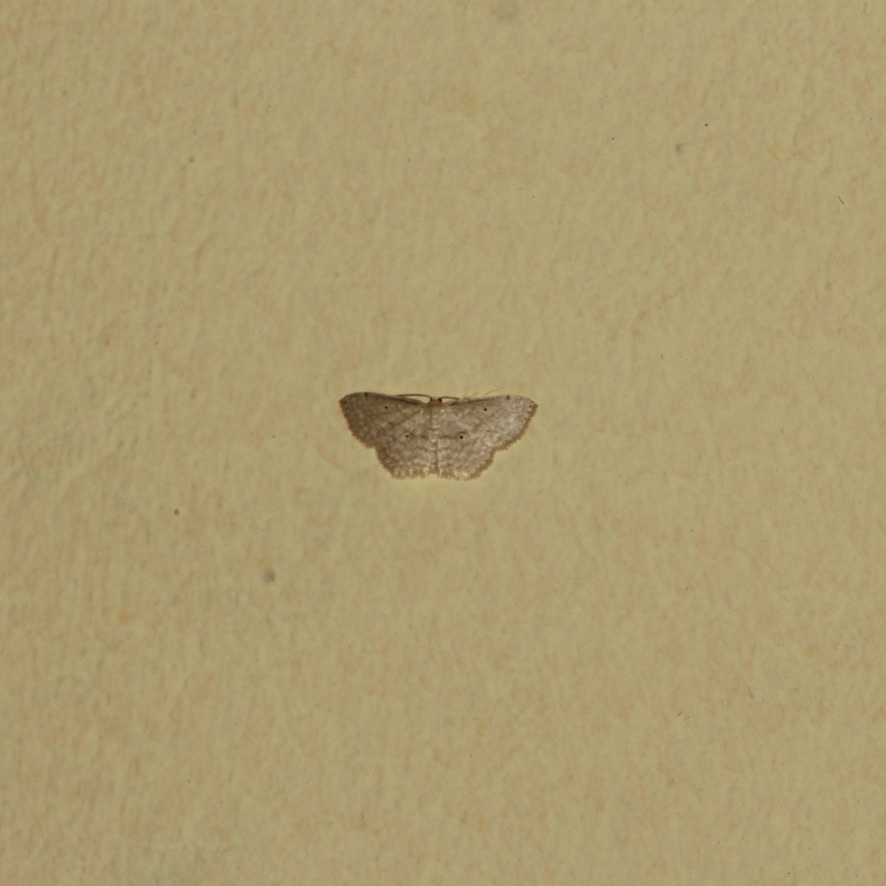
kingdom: Animalia
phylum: Arthropoda
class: Insecta
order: Lepidoptera
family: Geometridae
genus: Scopula
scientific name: Scopula apparitaria
